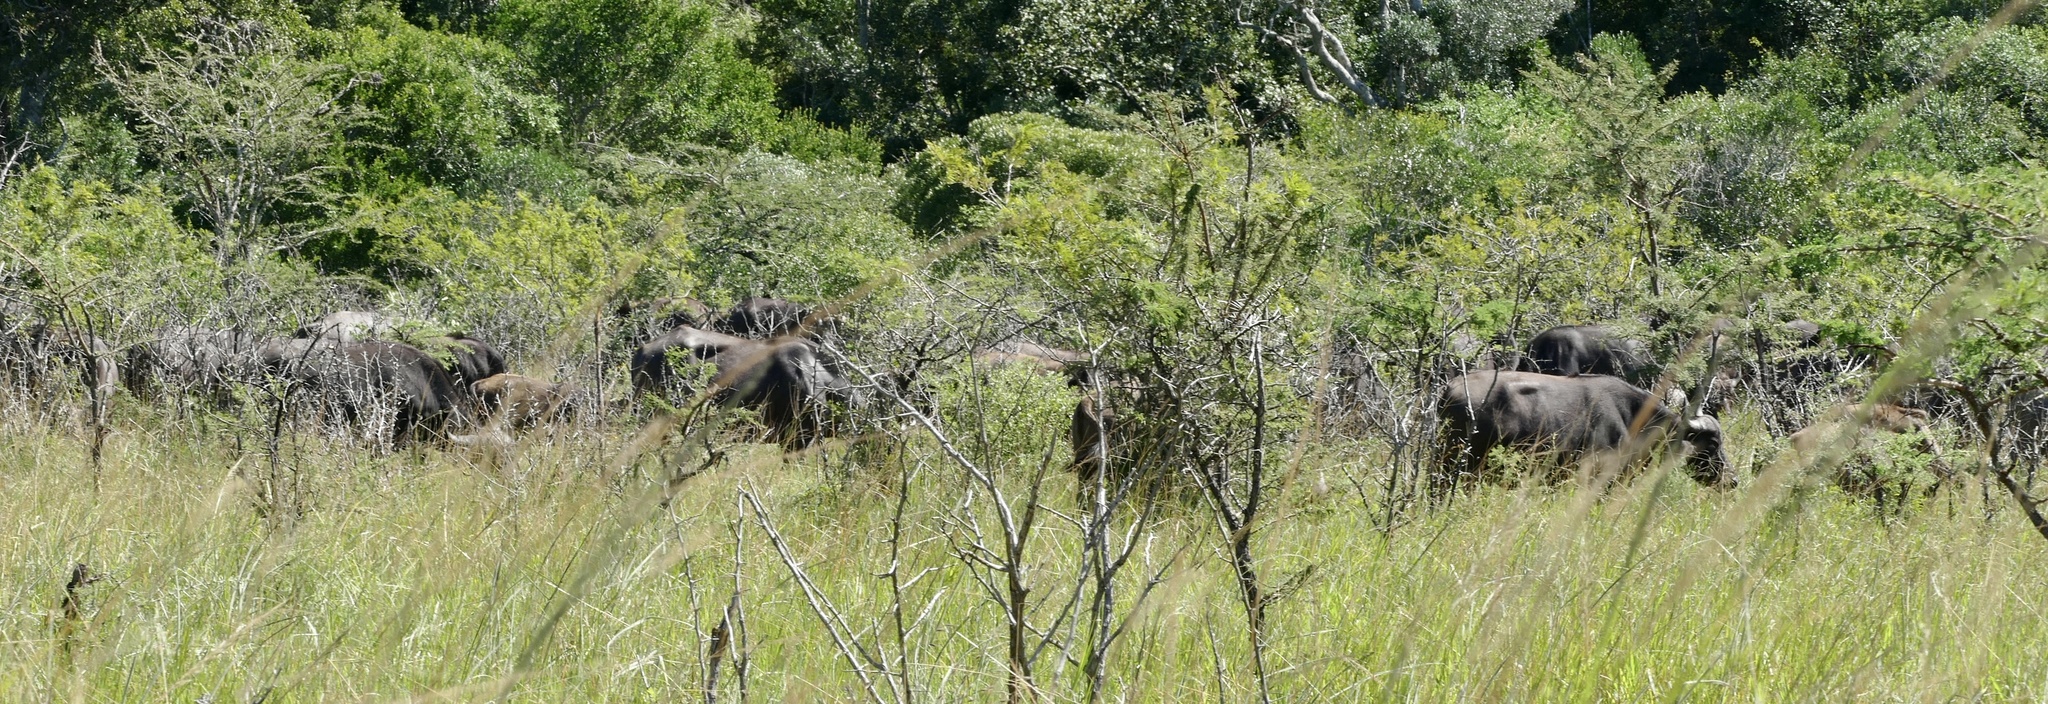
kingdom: Animalia
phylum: Chordata
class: Mammalia
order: Artiodactyla
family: Bovidae
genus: Syncerus
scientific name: Syncerus caffer
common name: African buffalo
